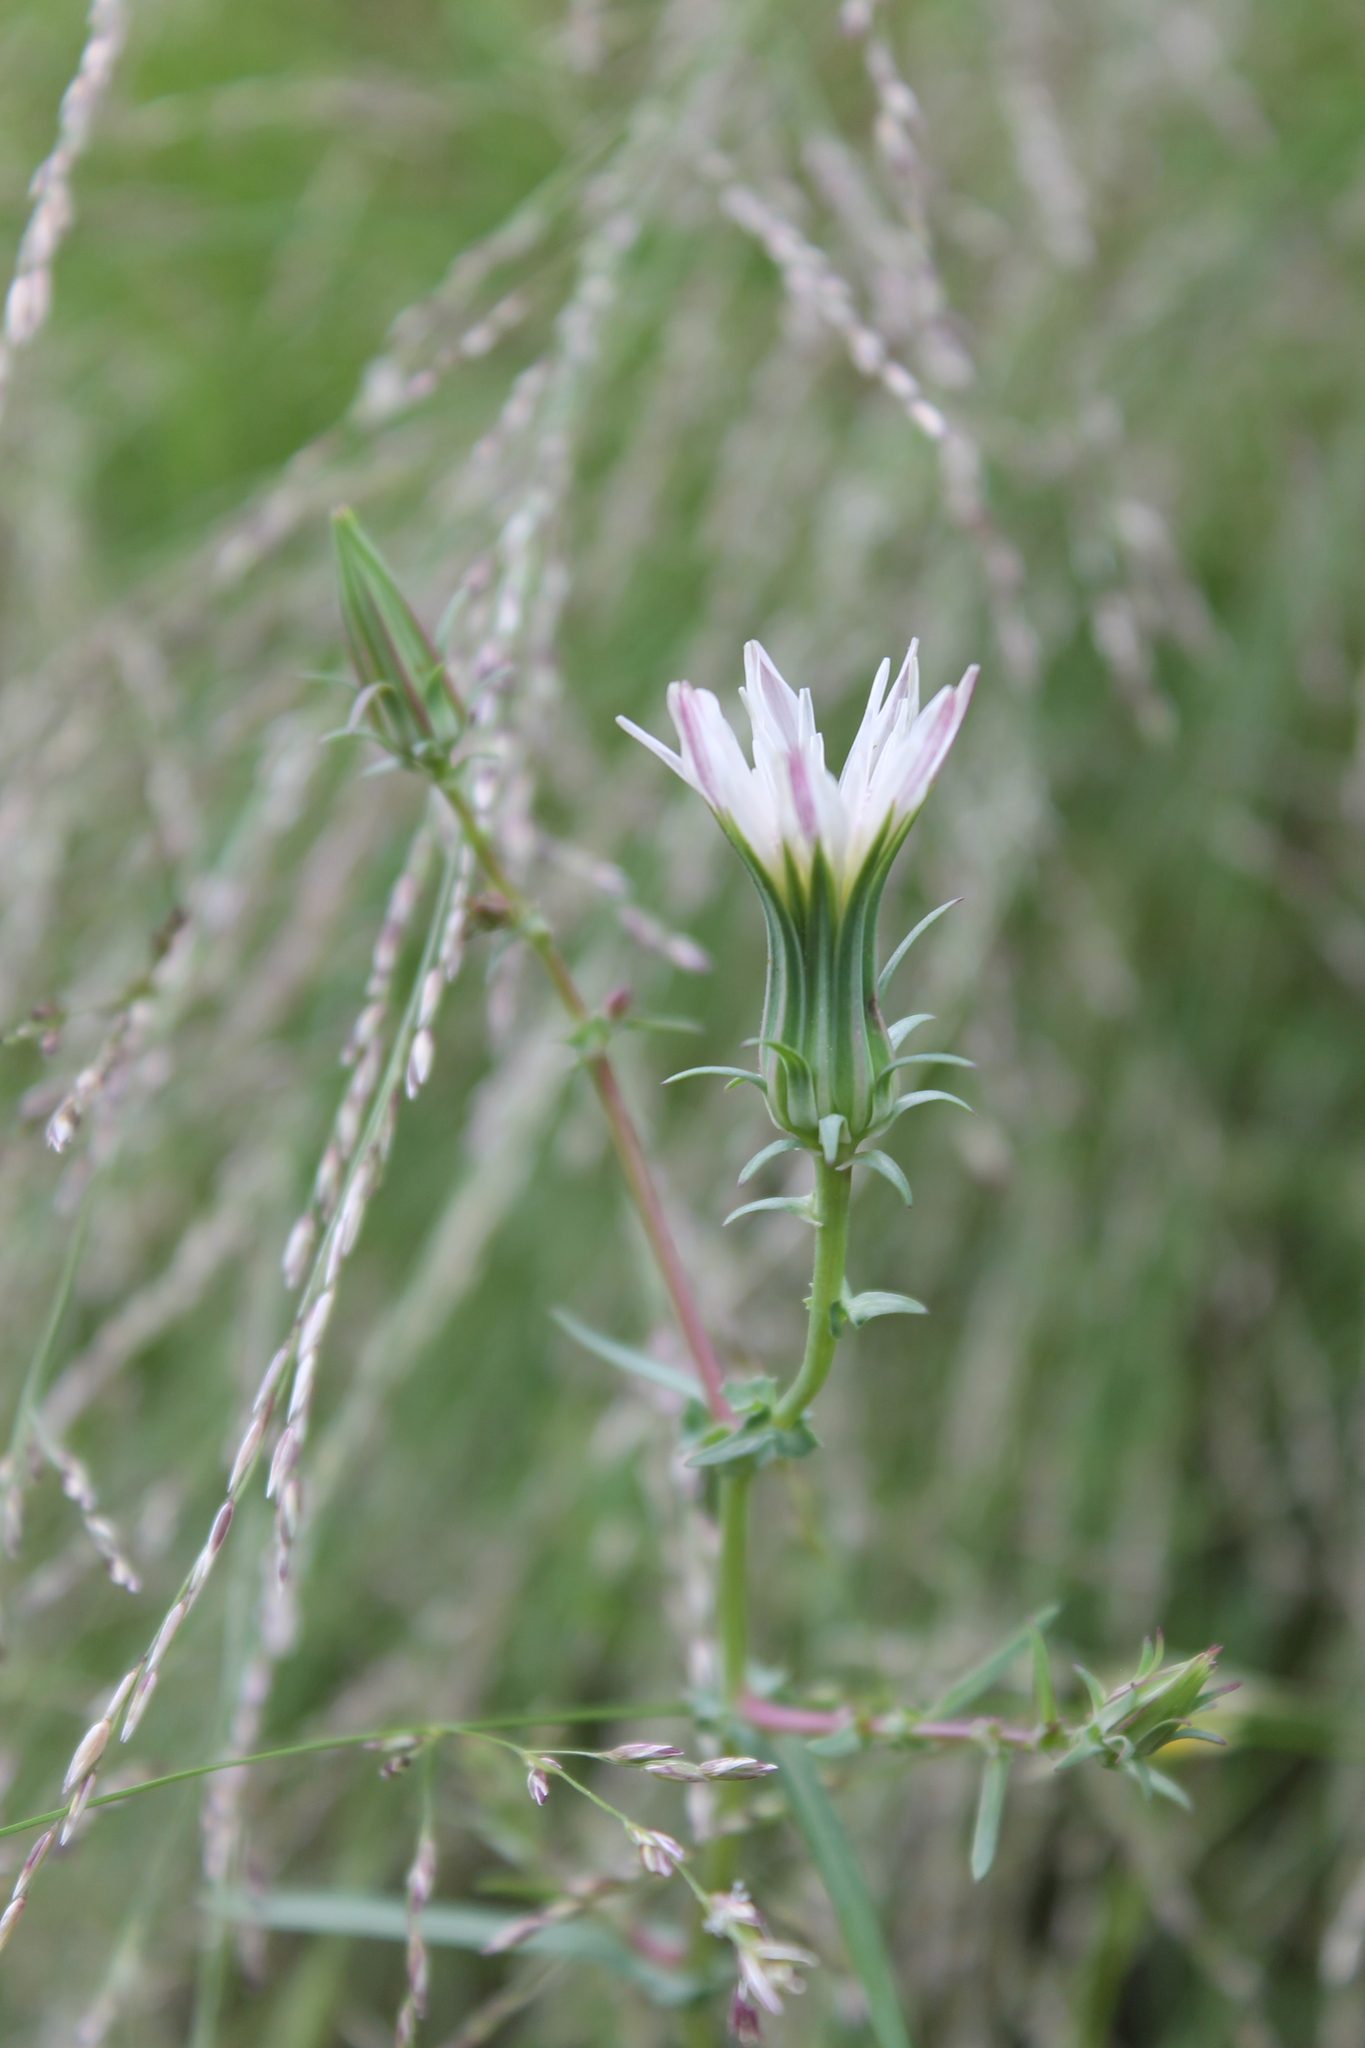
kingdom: Plantae
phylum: Tracheophyta
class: Magnoliopsida
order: Asterales
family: Asteraceae
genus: Rafinesquia
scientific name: Rafinesquia californica
